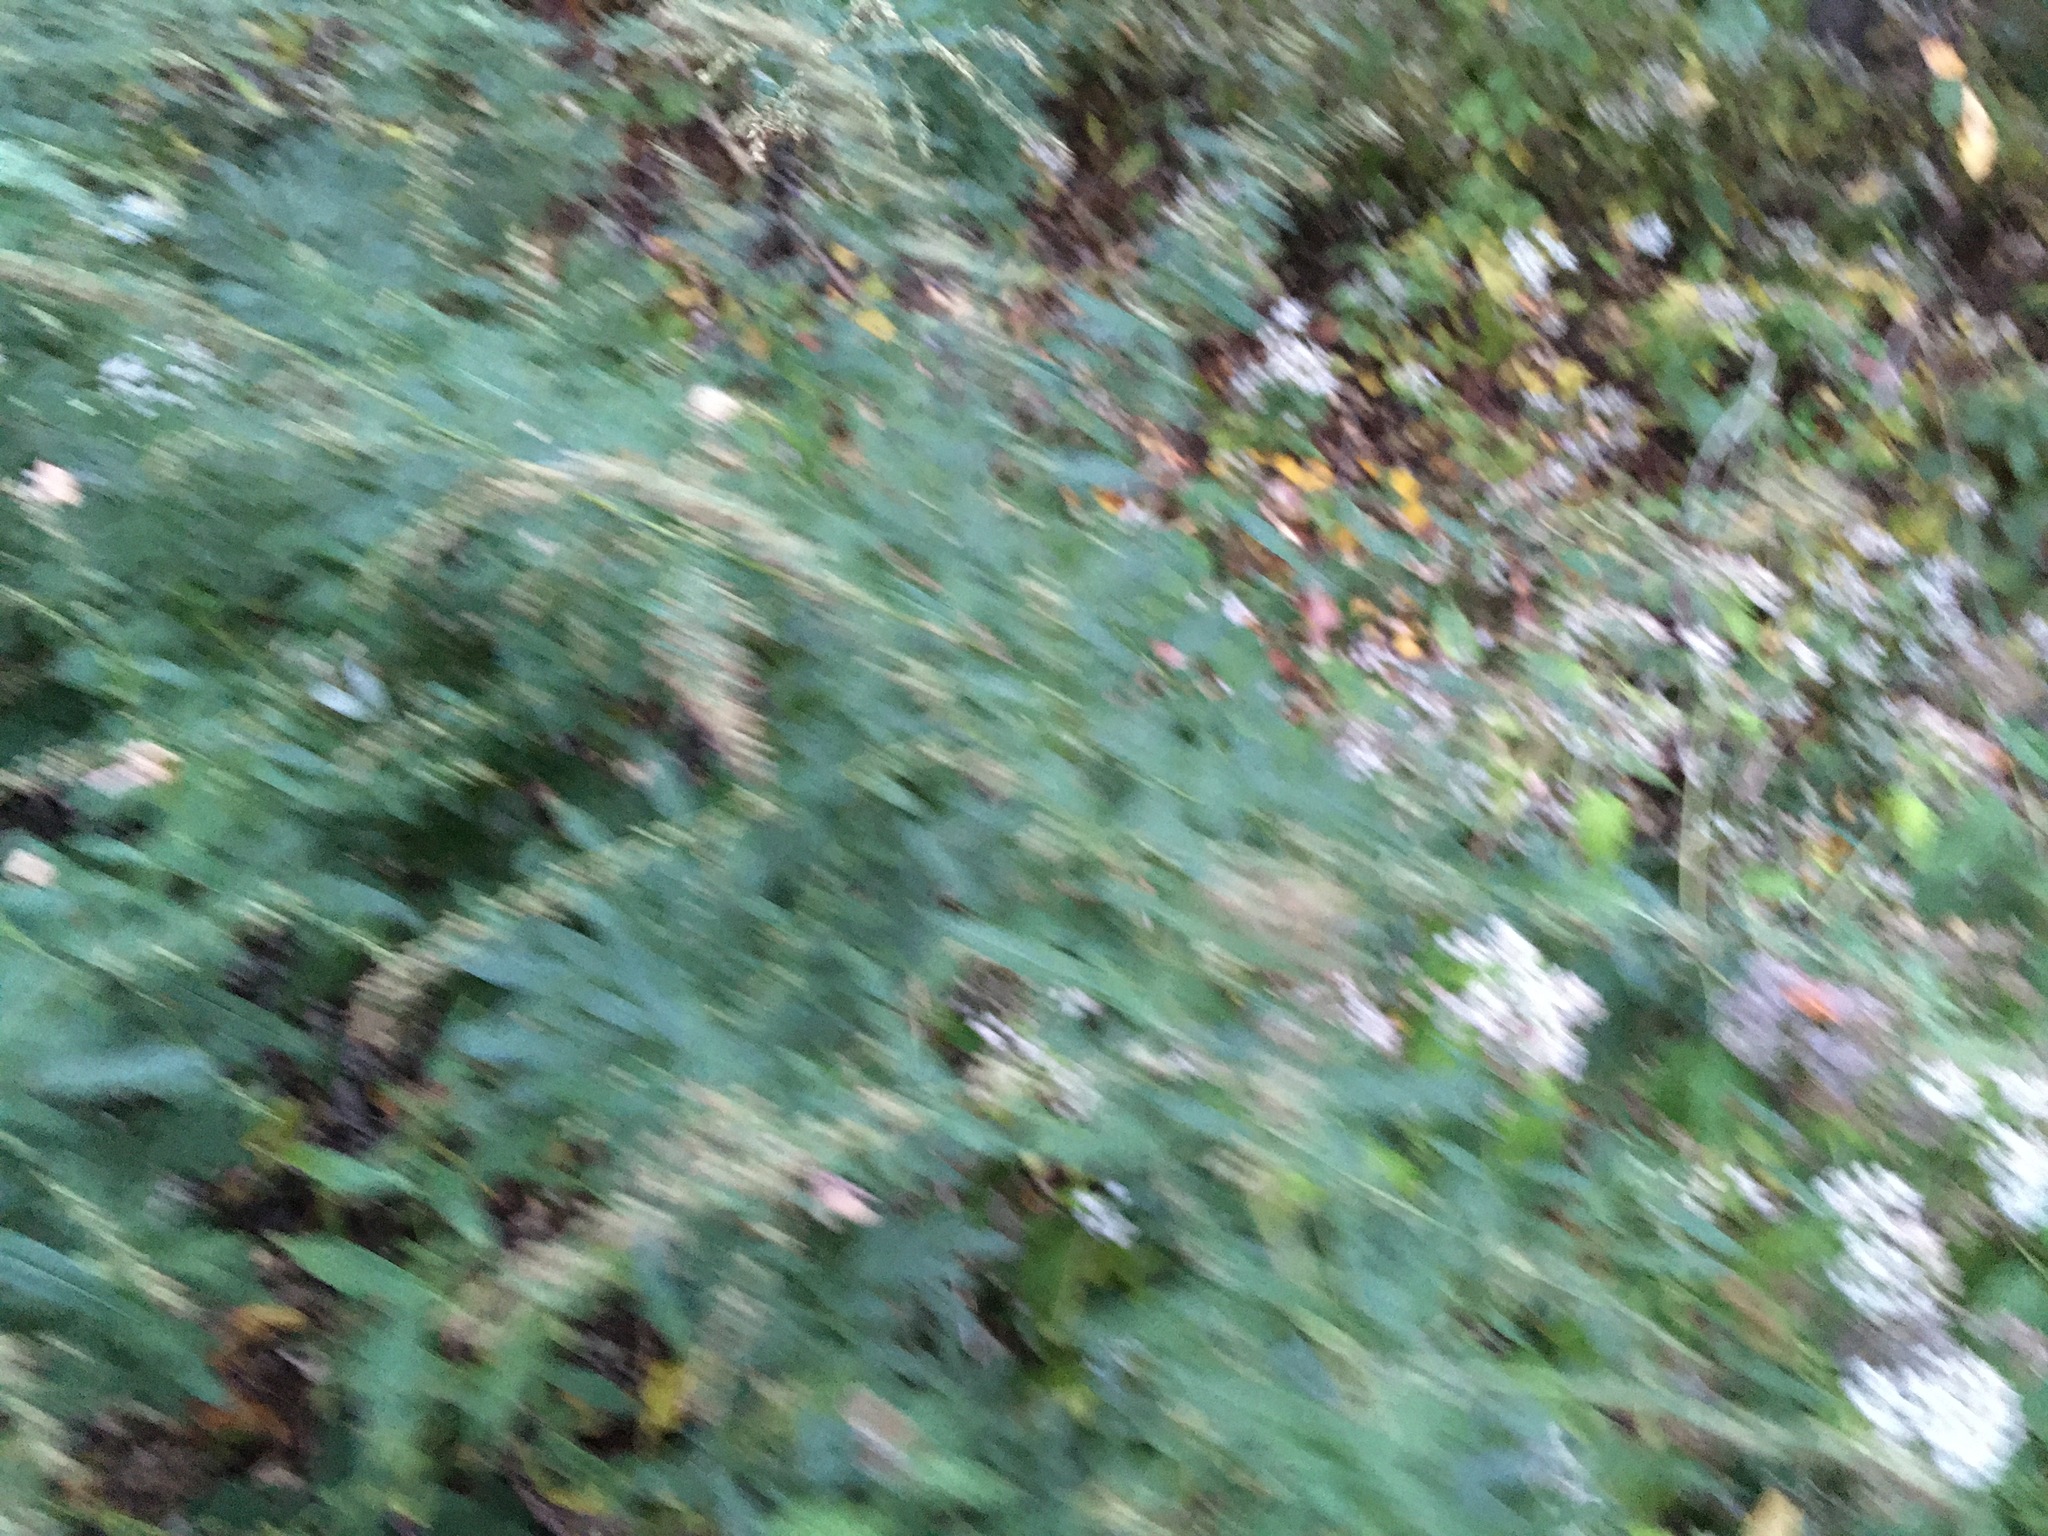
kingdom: Plantae
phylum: Tracheophyta
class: Magnoliopsida
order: Asterales
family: Asteraceae
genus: Artemisia
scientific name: Artemisia vulgaris
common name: Mugwort
